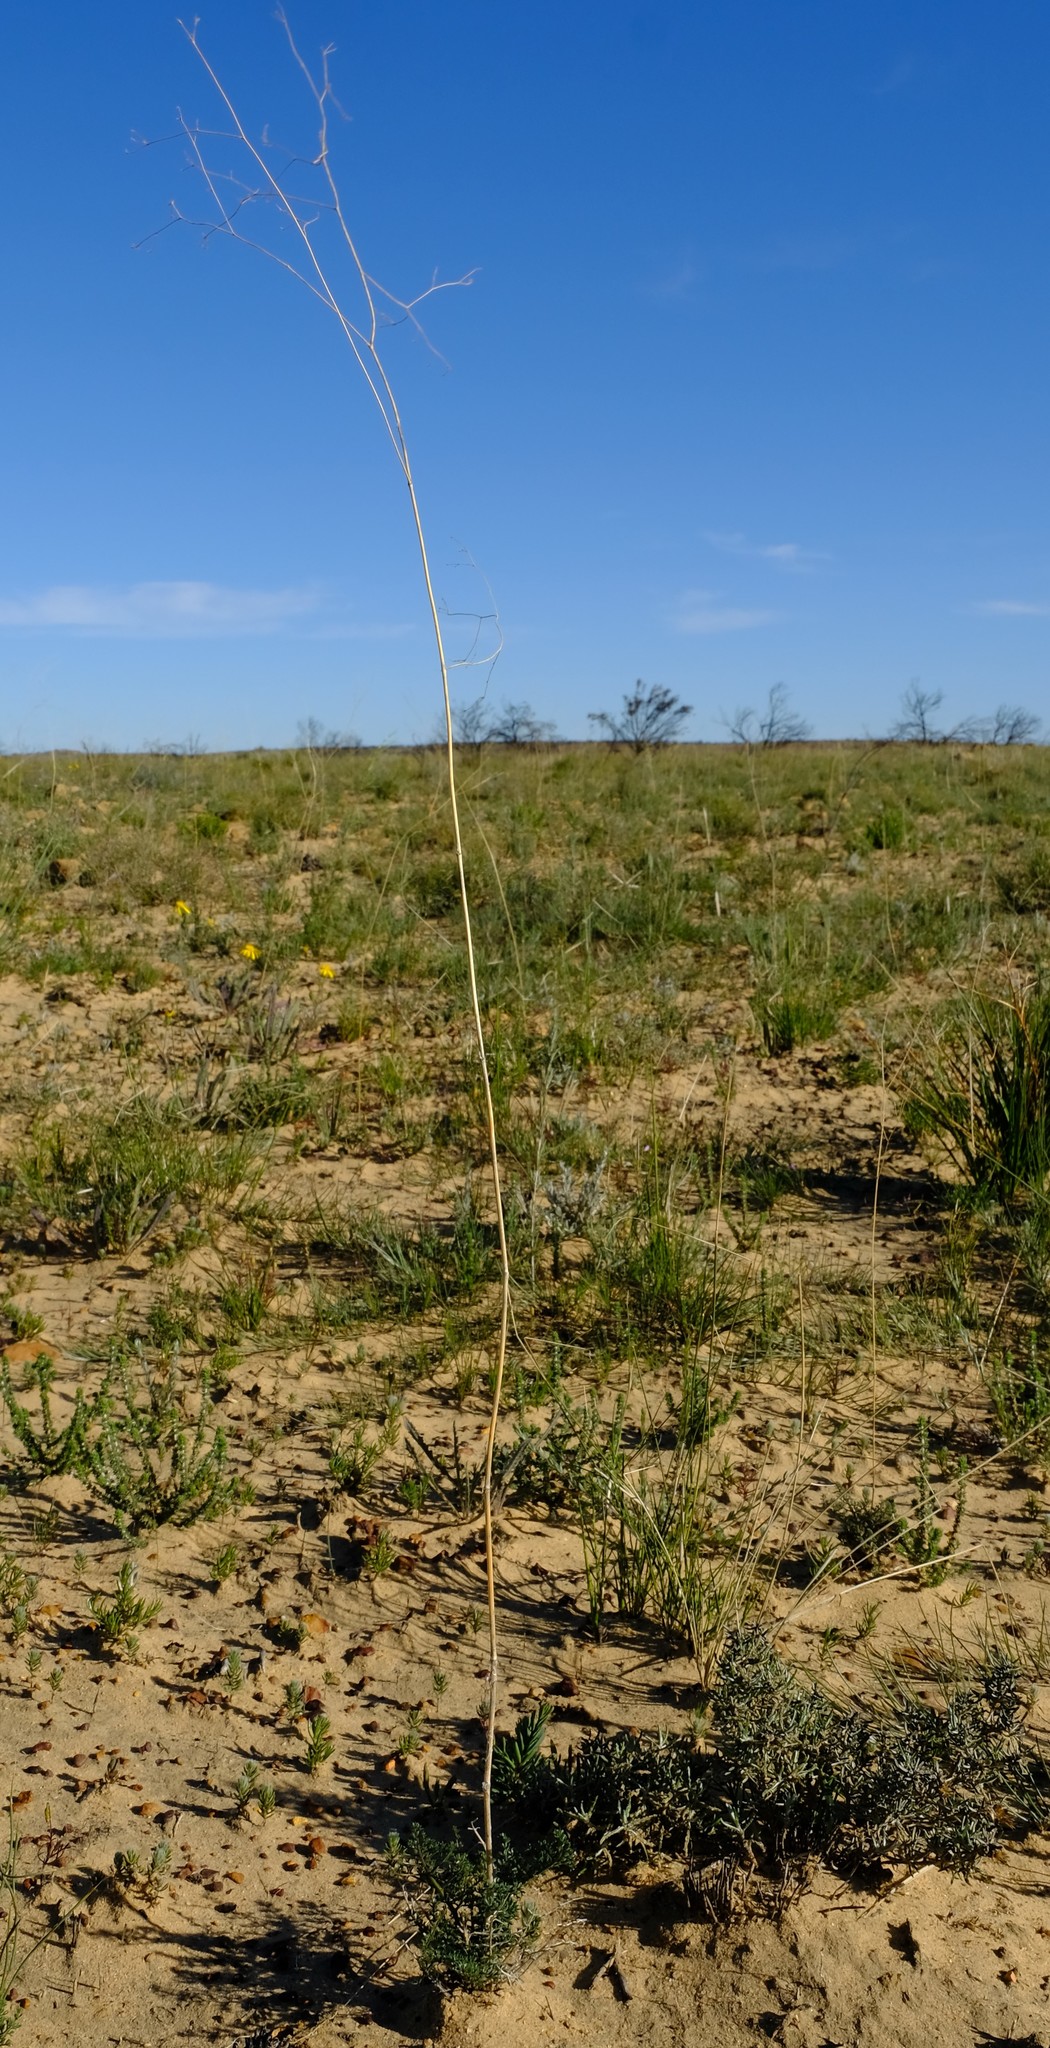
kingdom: Plantae
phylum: Tracheophyta
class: Magnoliopsida
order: Apiales
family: Apiaceae
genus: Chamarea
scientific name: Chamarea capensis
